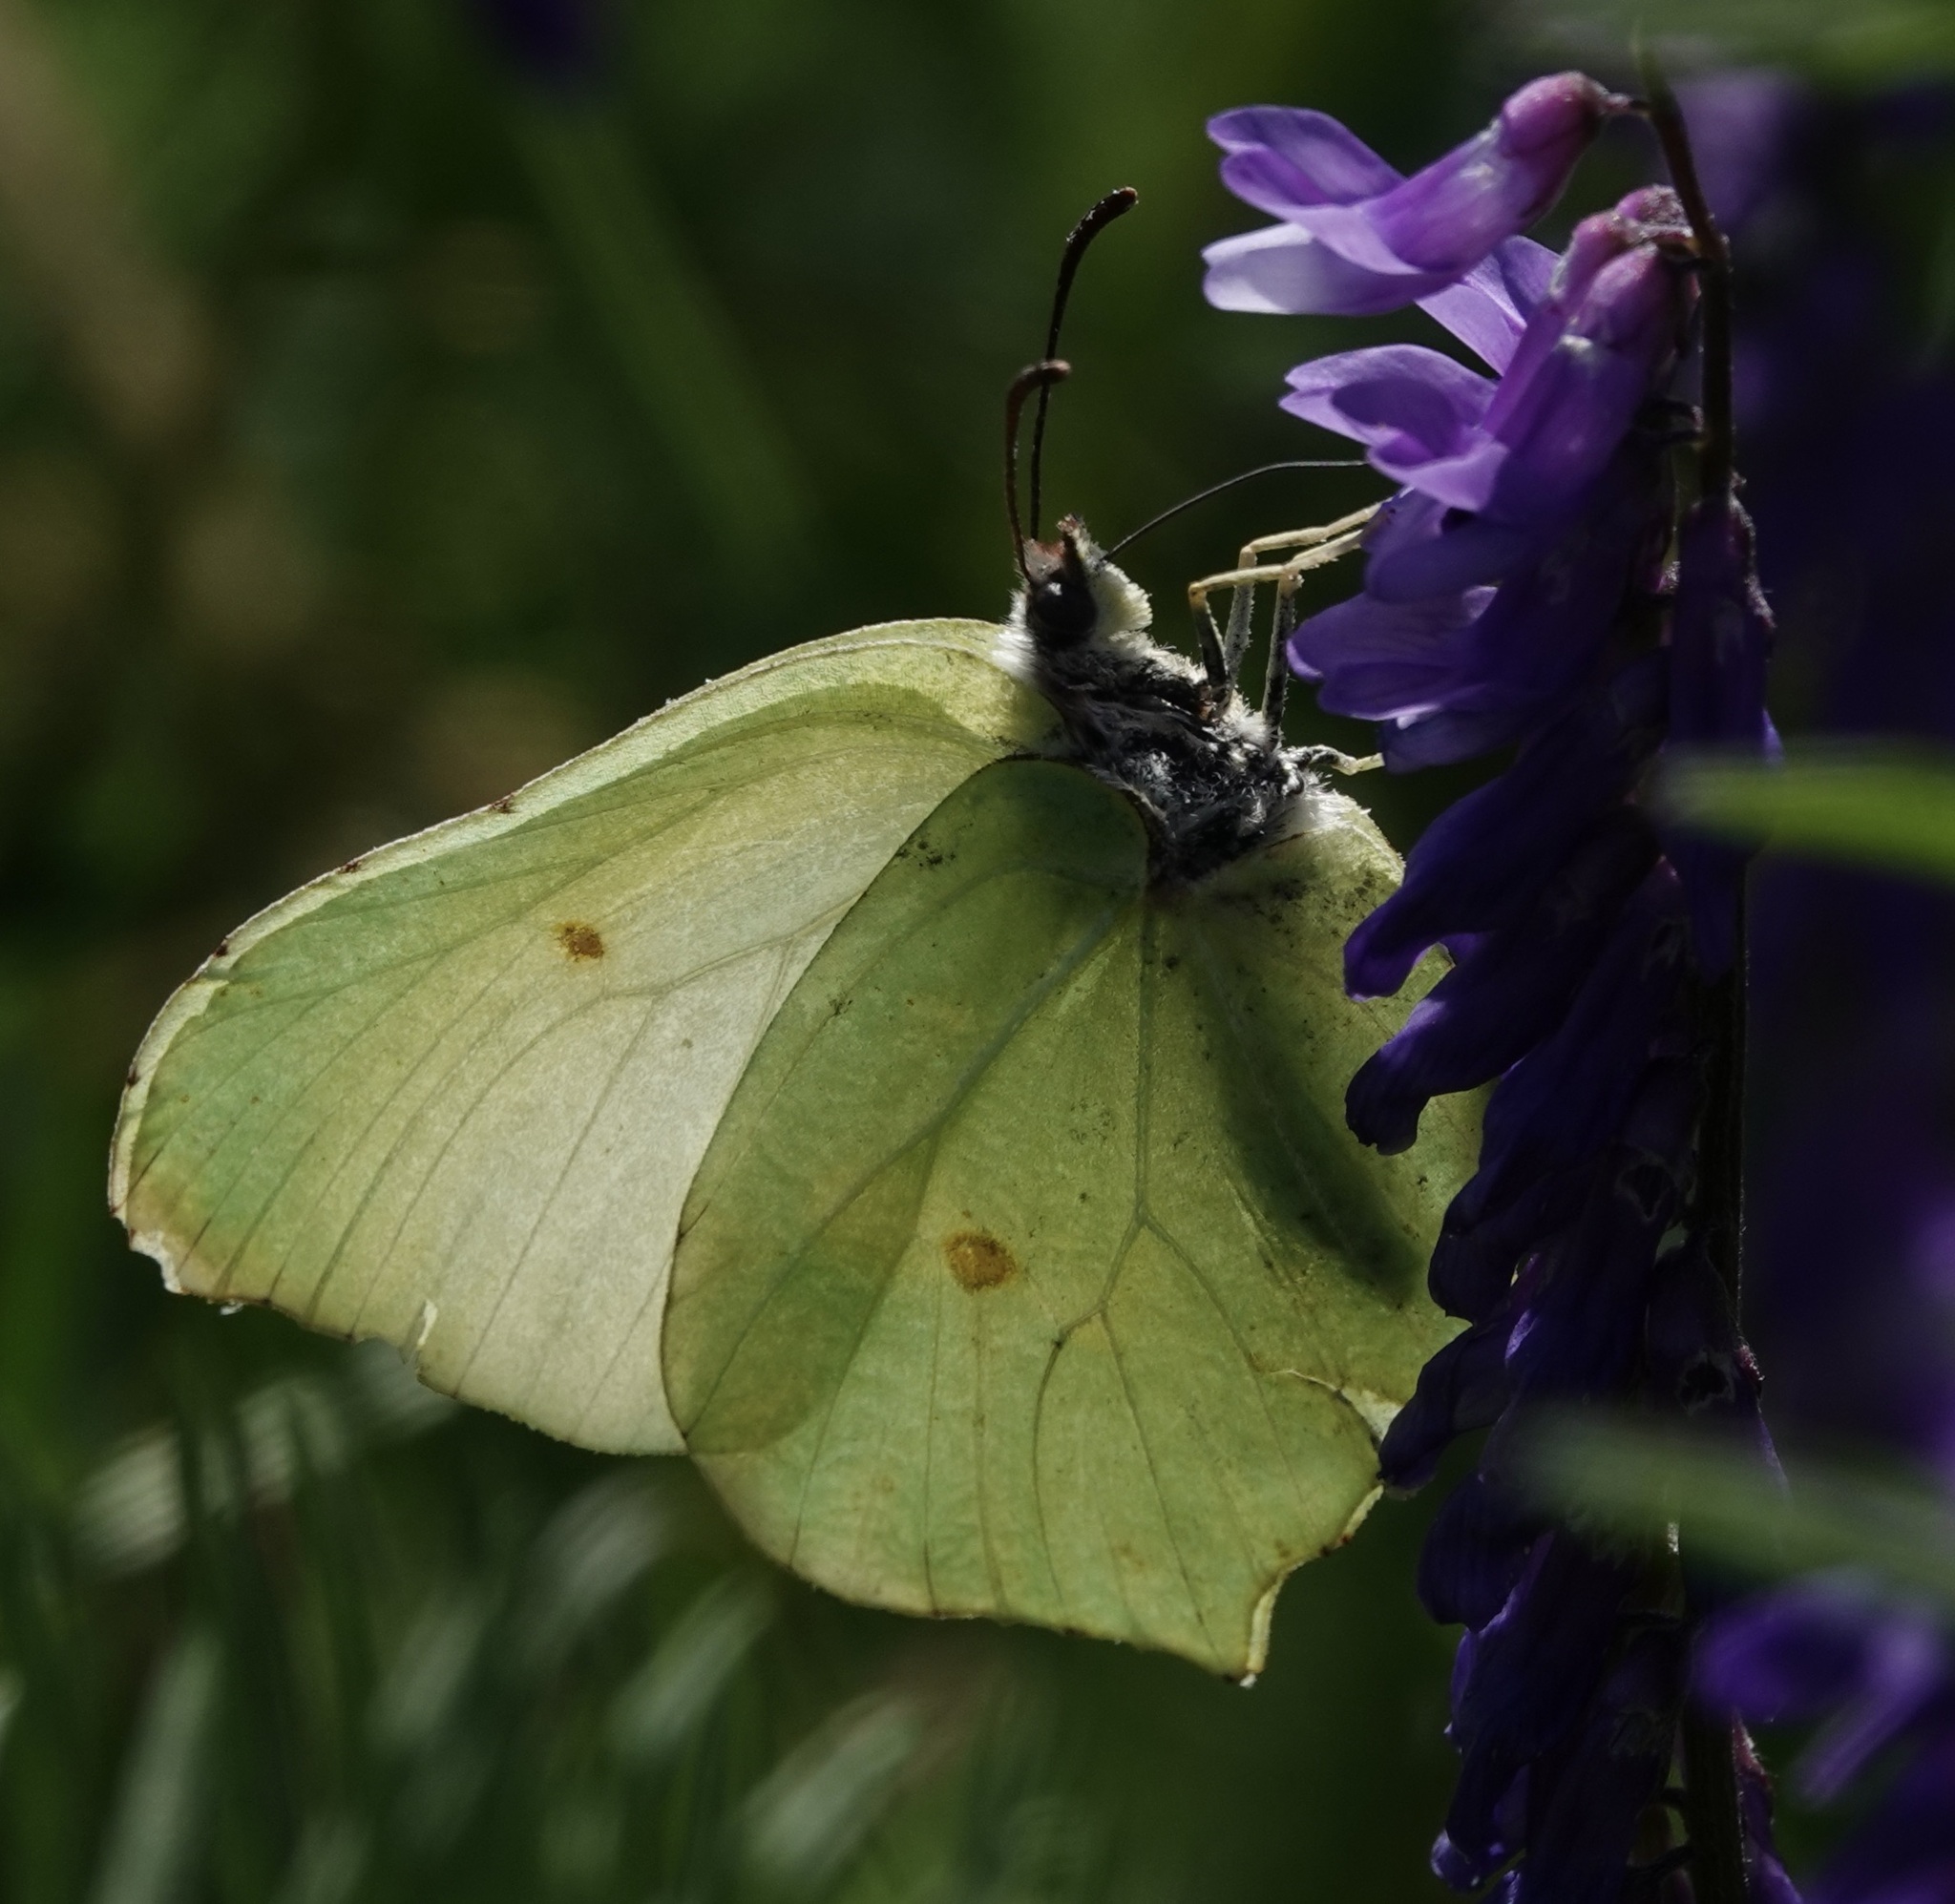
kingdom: Animalia
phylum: Arthropoda
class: Insecta
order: Lepidoptera
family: Pieridae
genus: Gonepteryx
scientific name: Gonepteryx rhamni
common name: Brimstone
